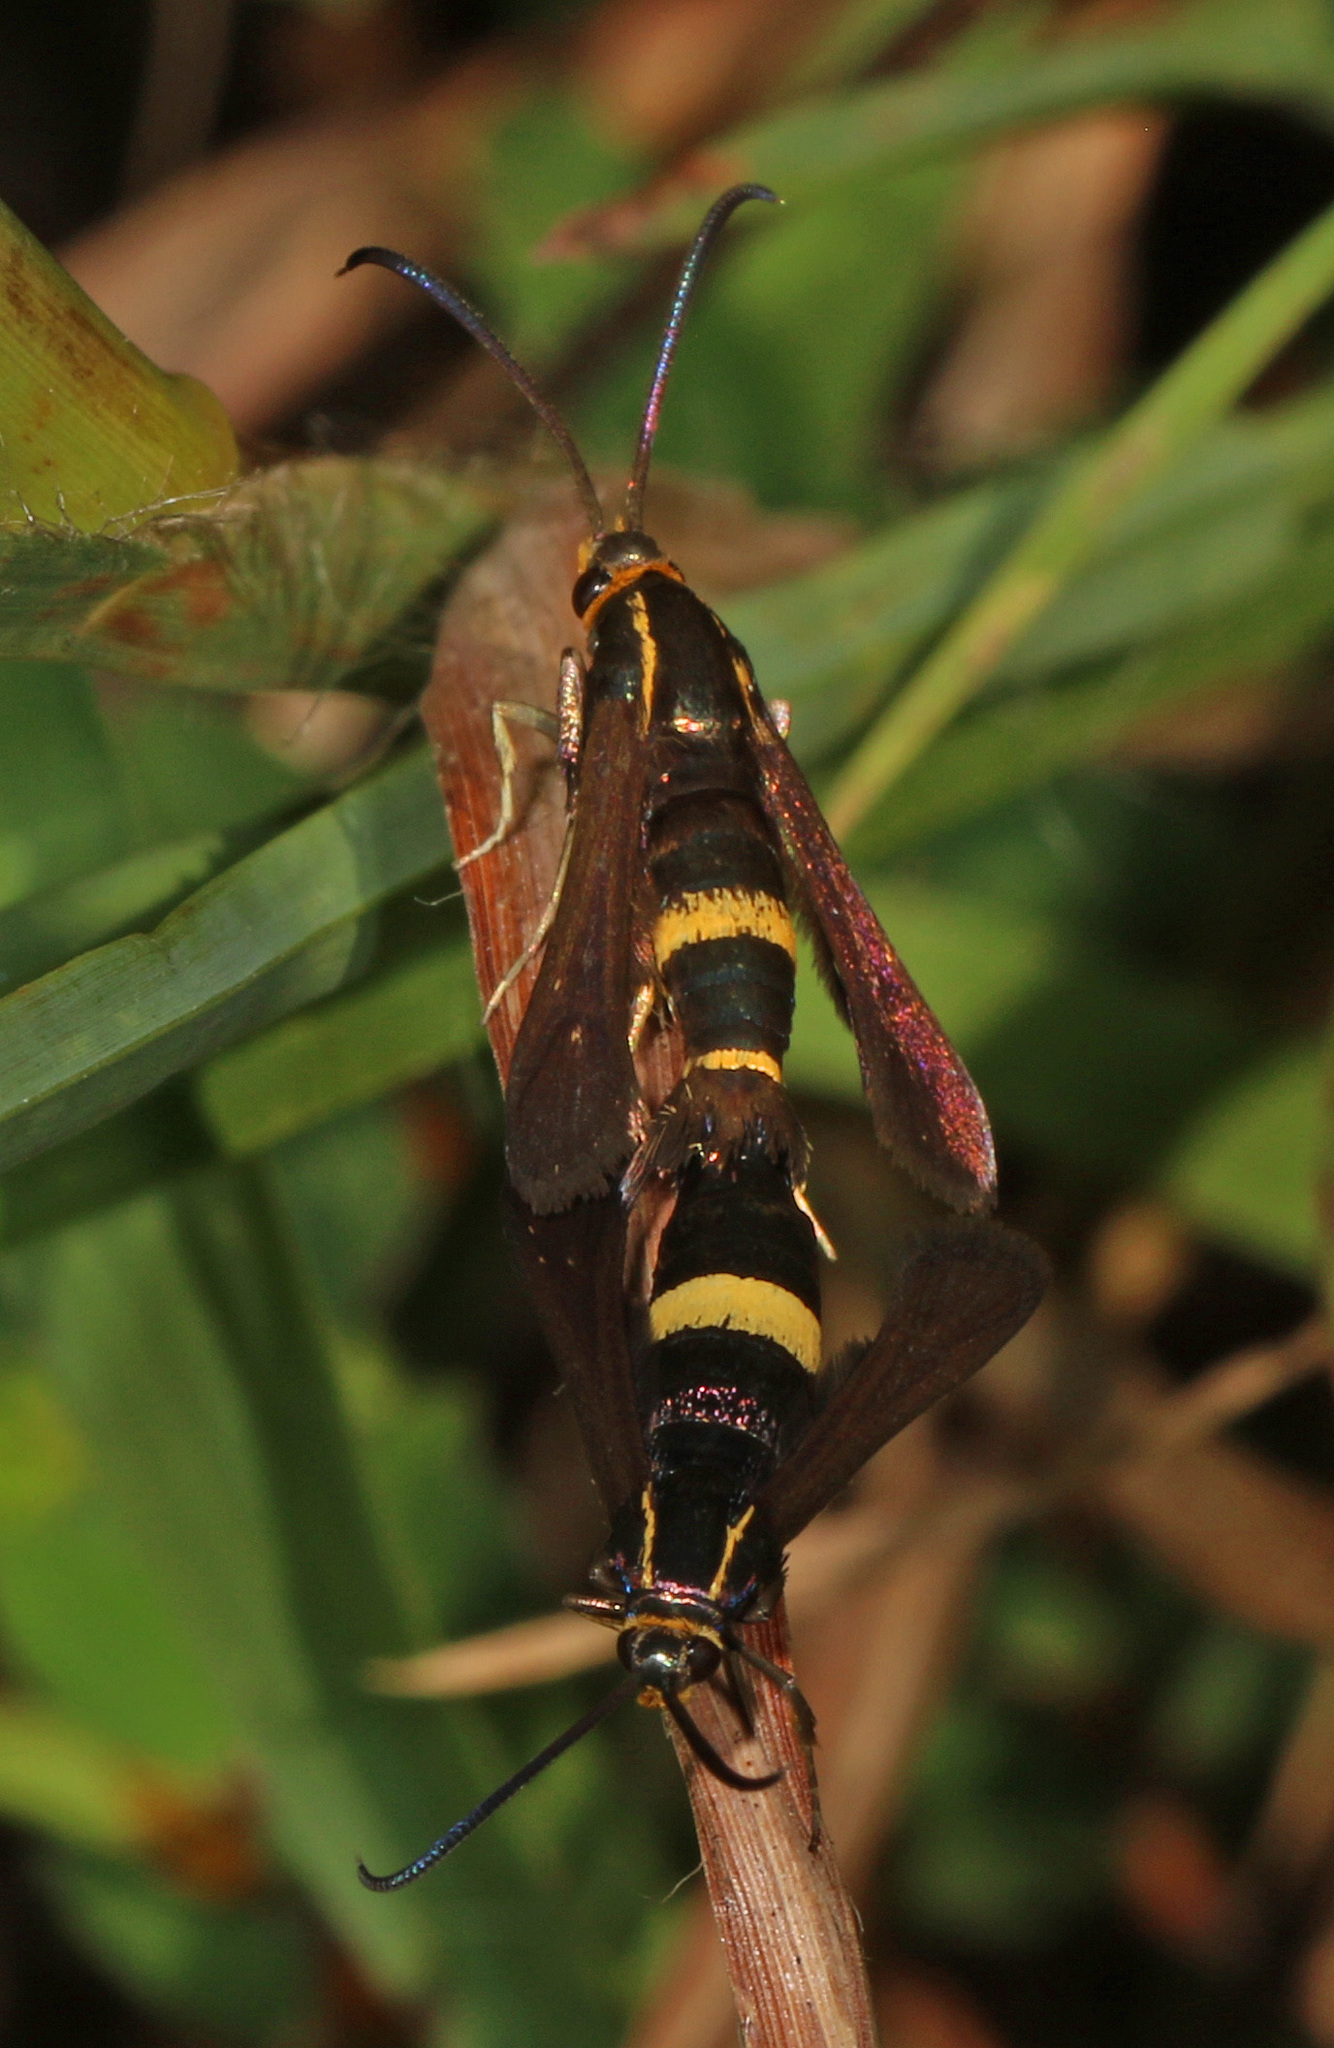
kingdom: Animalia
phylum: Arthropoda
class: Insecta
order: Lepidoptera
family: Sesiidae
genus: Carmenta
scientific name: Carmenta pyralidiformis
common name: Boneset borer moth
